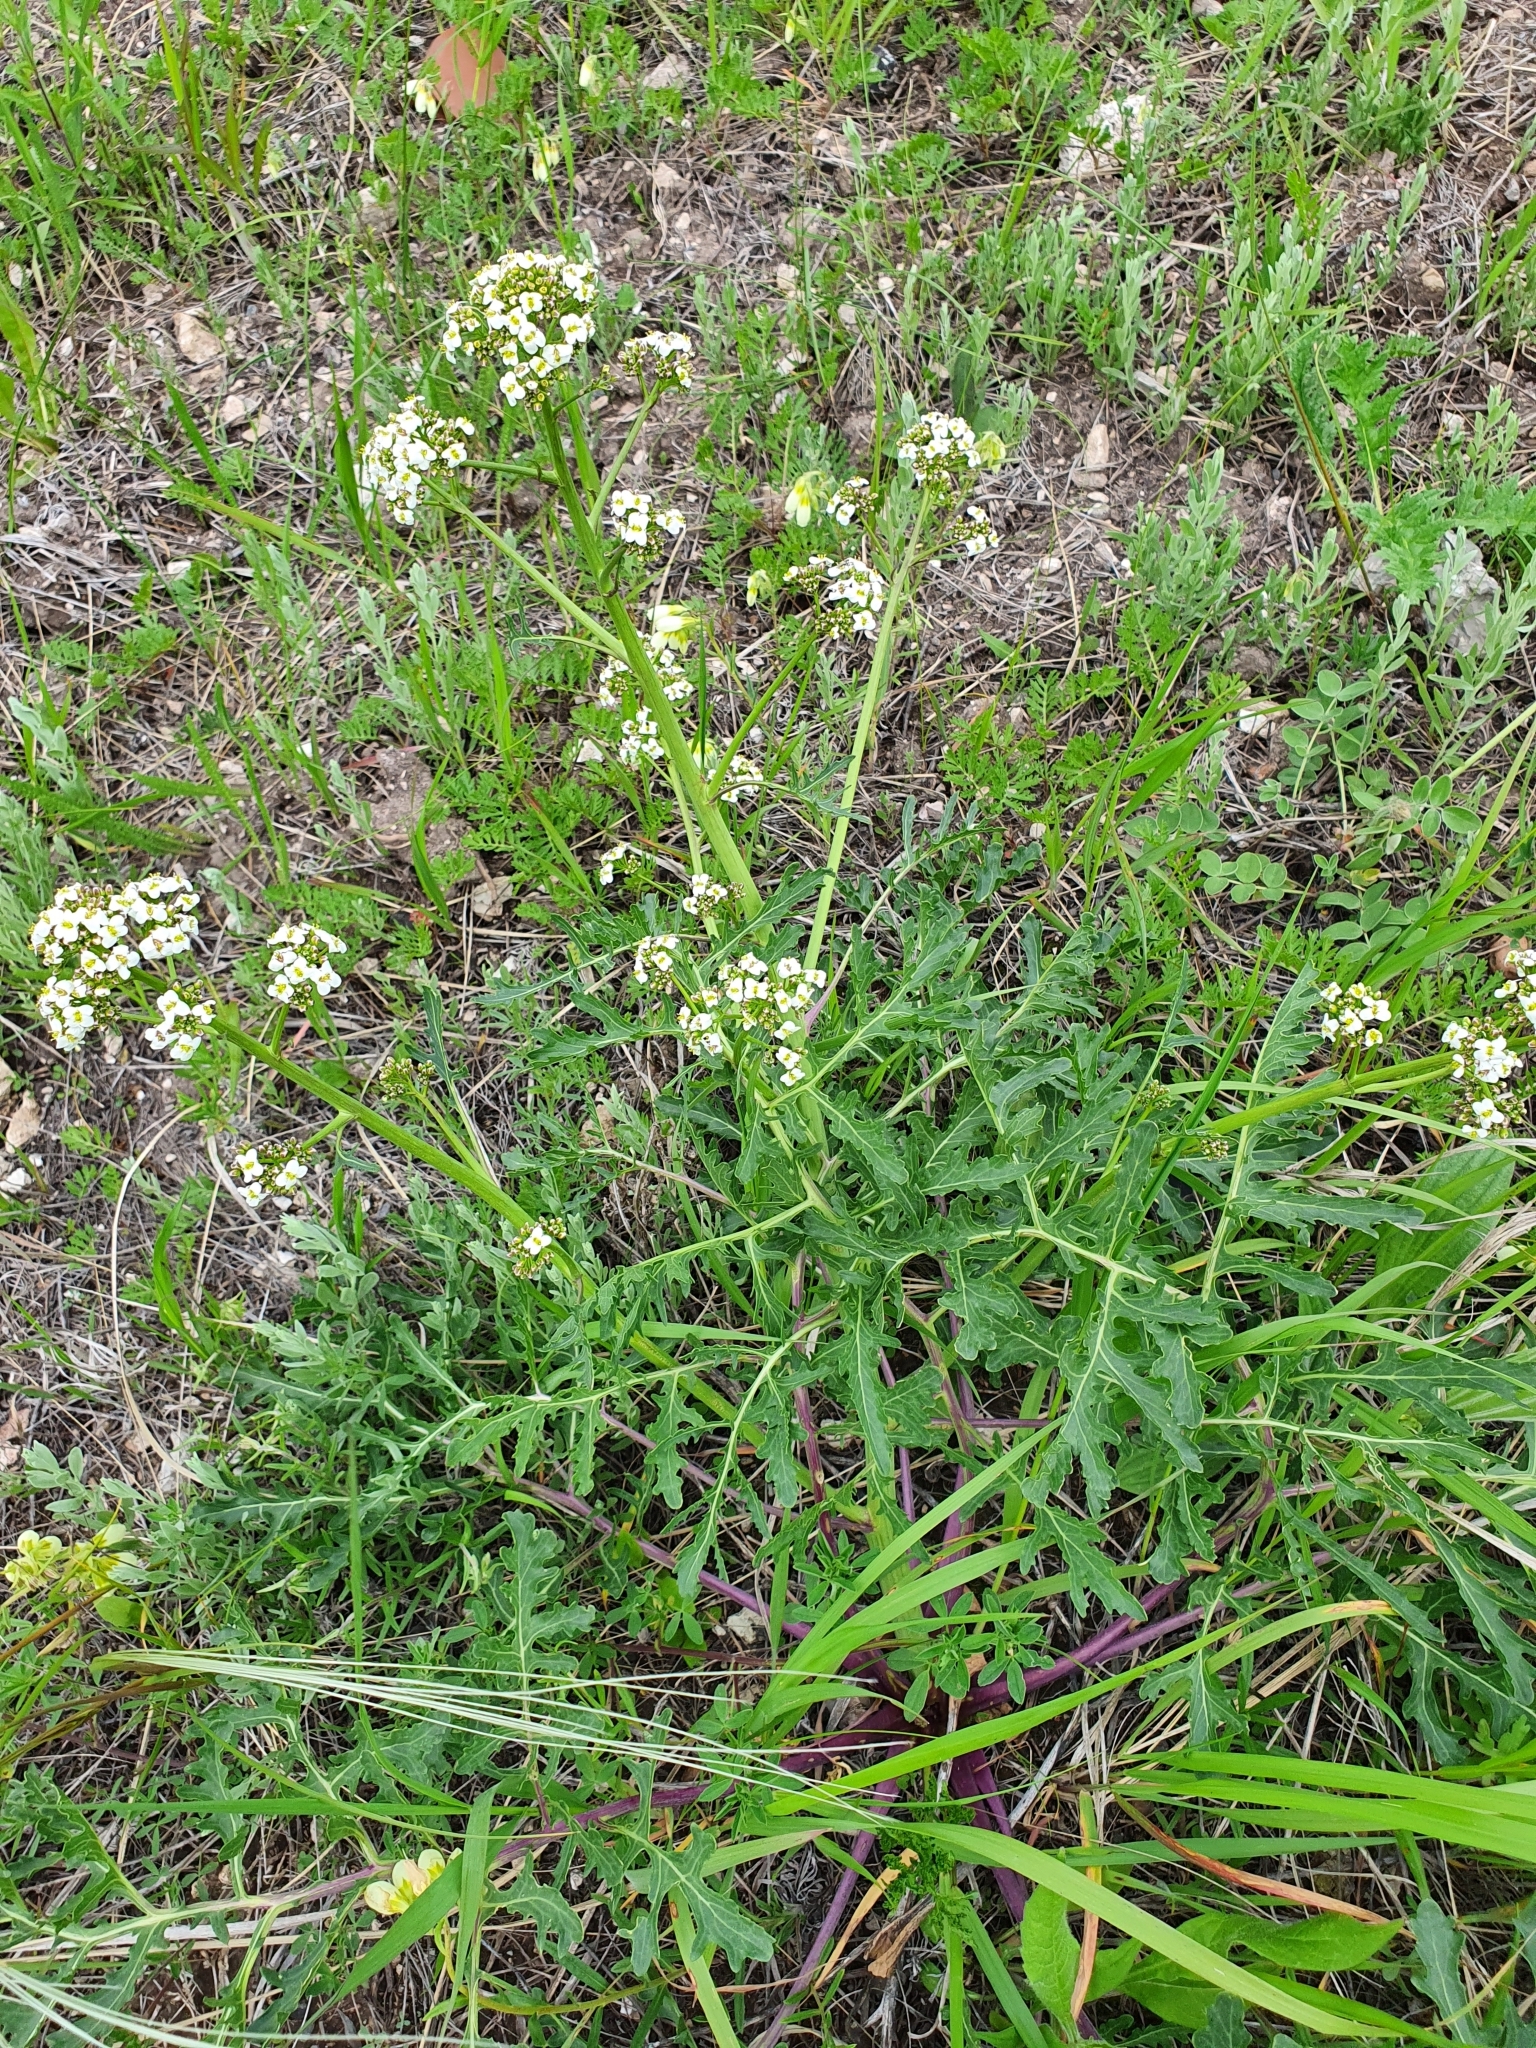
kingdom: Plantae
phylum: Tracheophyta
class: Magnoliopsida
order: Brassicales
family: Brassicaceae
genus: Crambe
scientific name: Crambe tataria
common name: Tartarian breadplant
